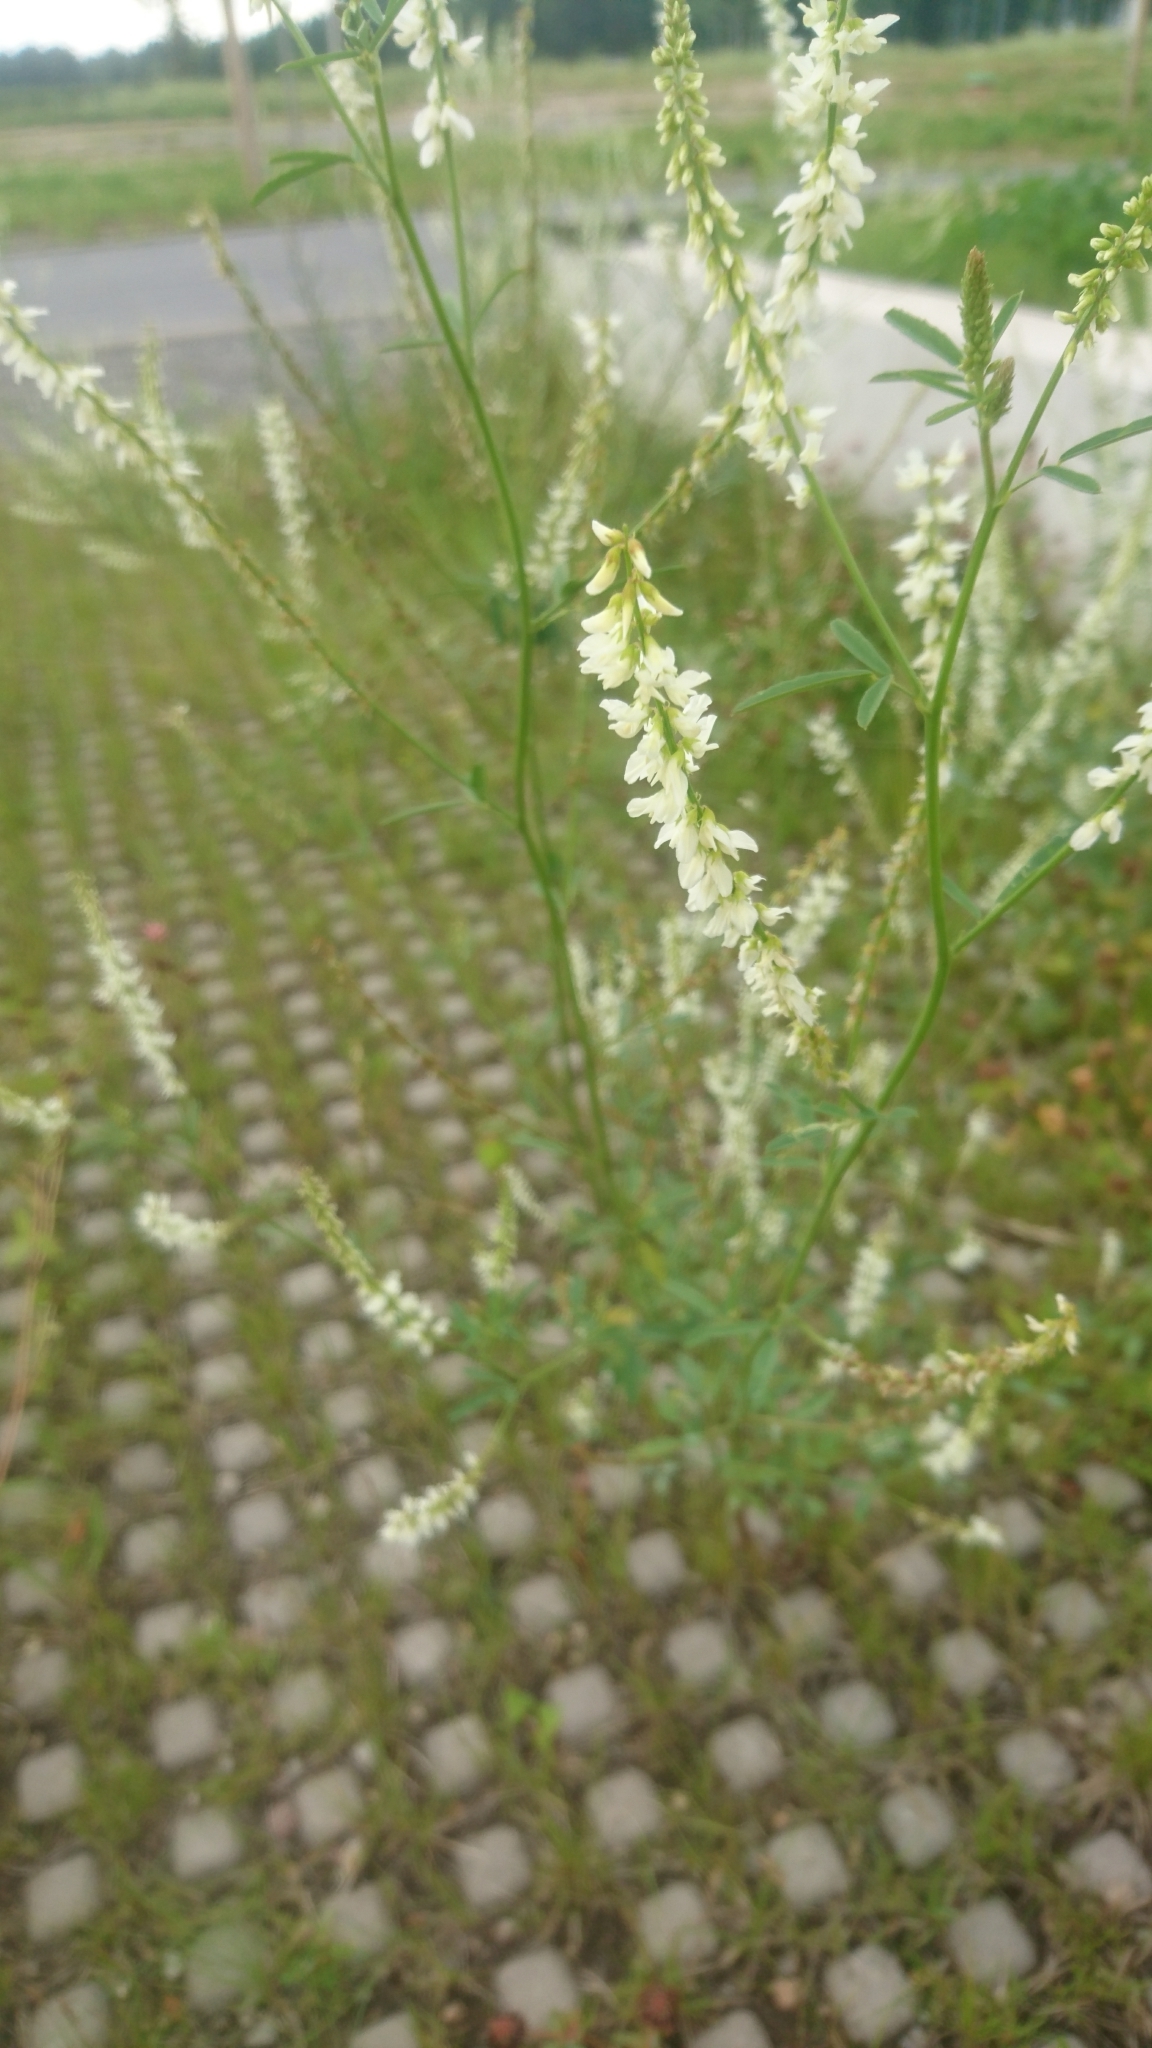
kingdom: Plantae
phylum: Tracheophyta
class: Magnoliopsida
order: Fabales
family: Fabaceae
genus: Melilotus
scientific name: Melilotus albus
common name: White melilot
